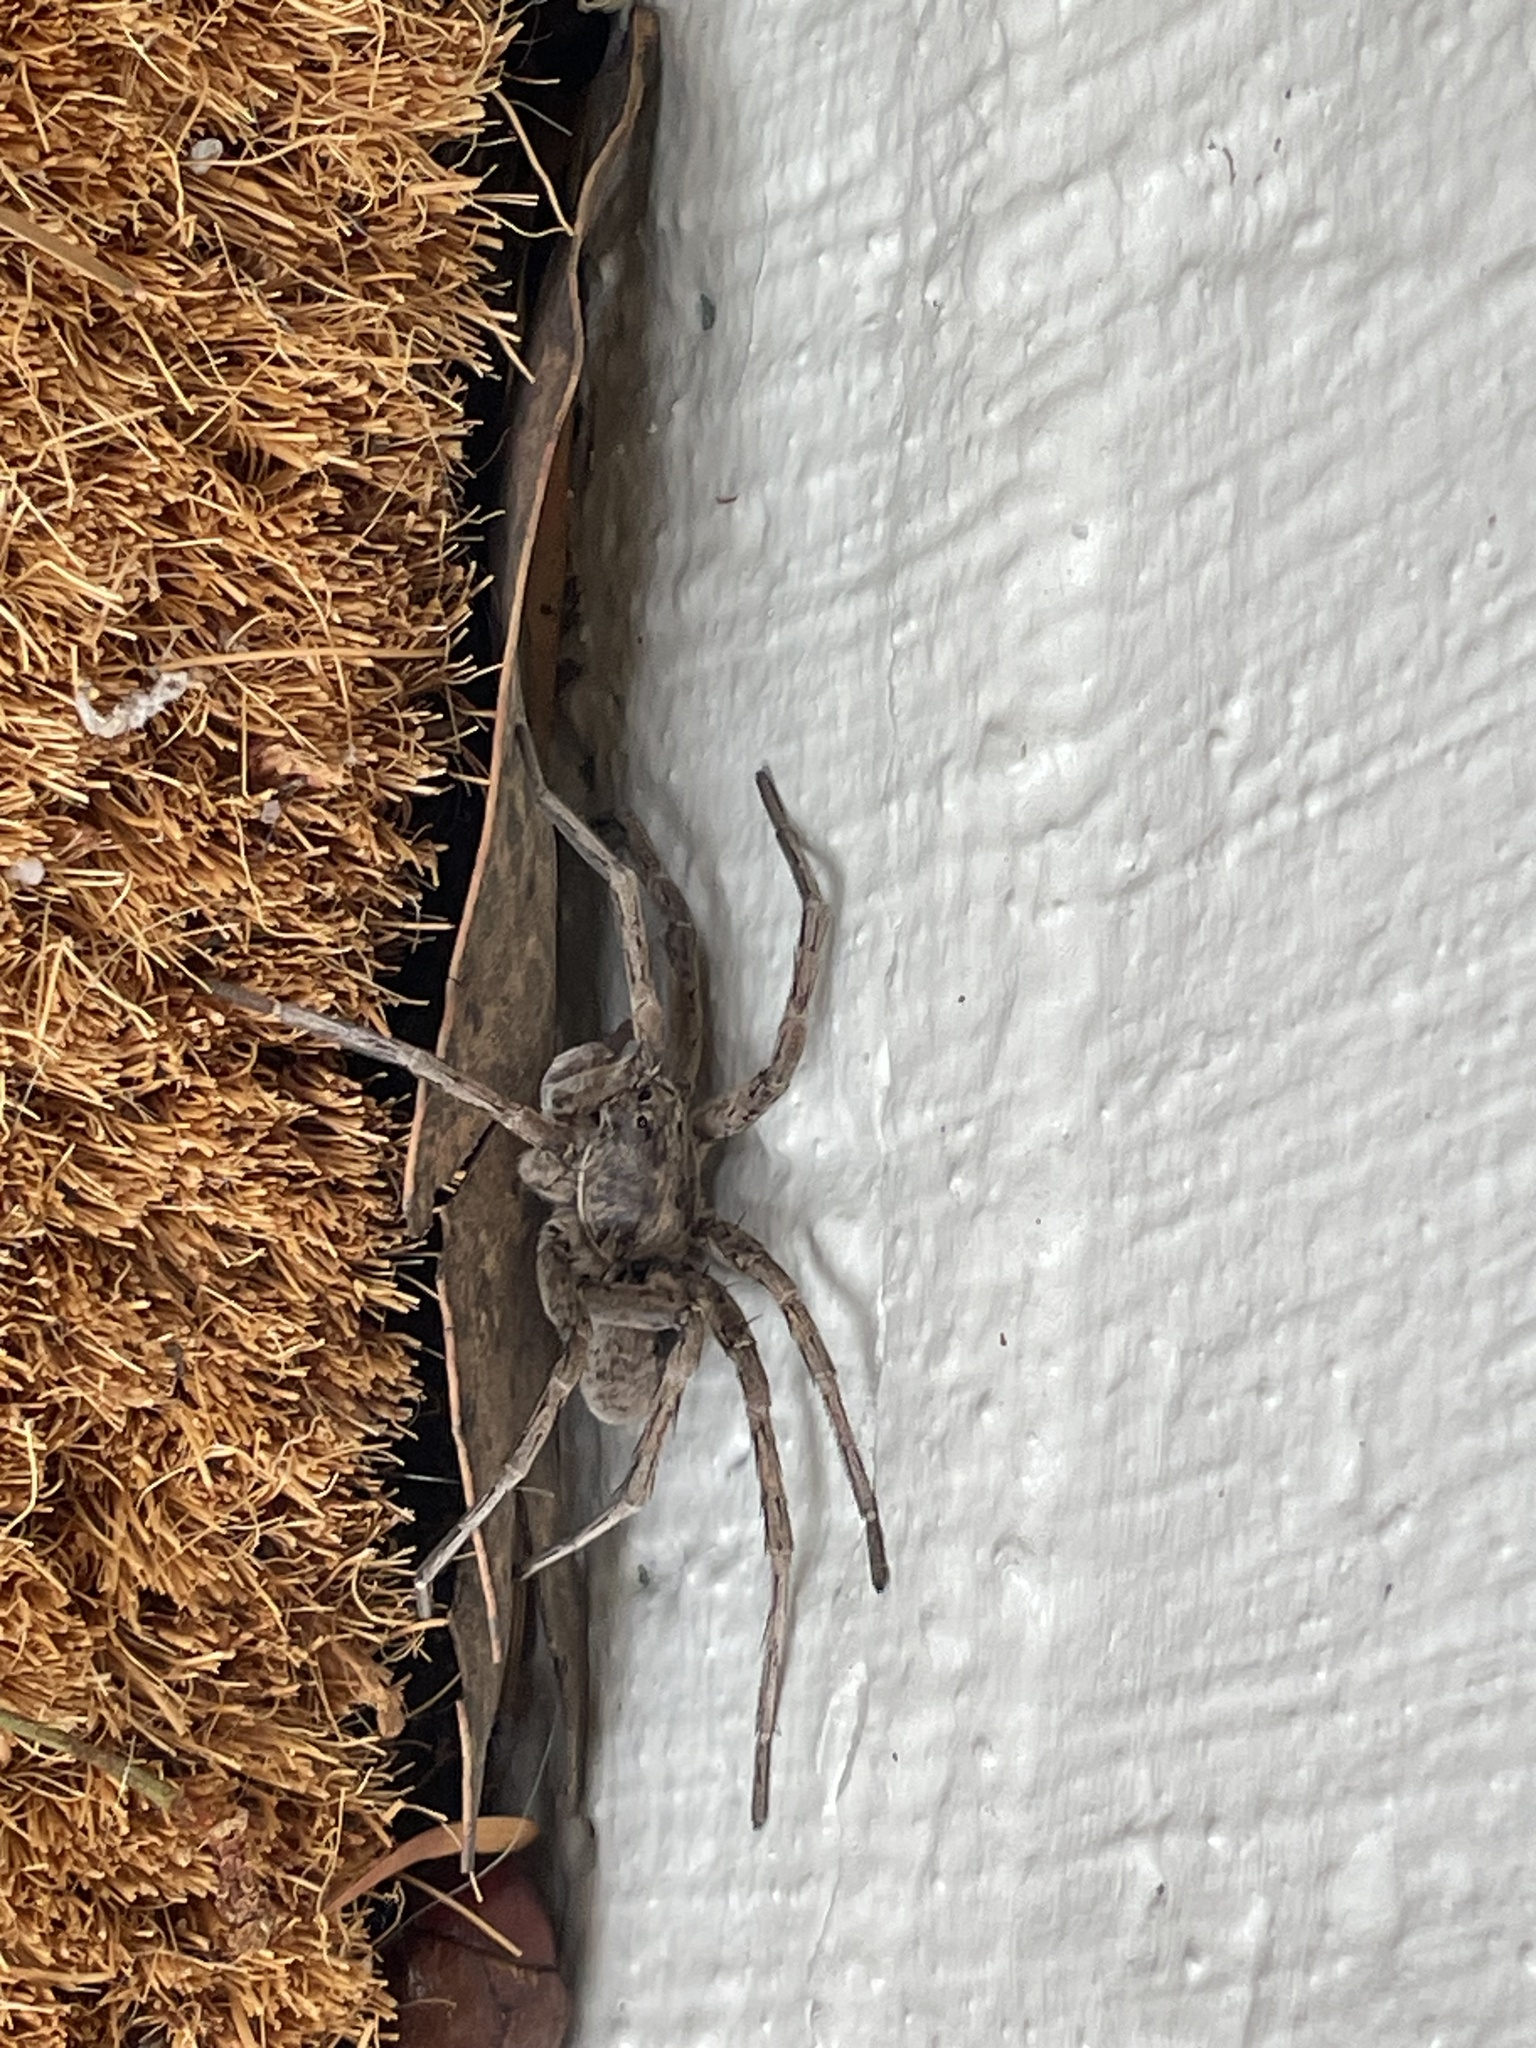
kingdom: Animalia
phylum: Arthropoda
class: Arachnida
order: Araneae
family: Lycosidae
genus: Portacosa
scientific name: Portacosa cinerea
